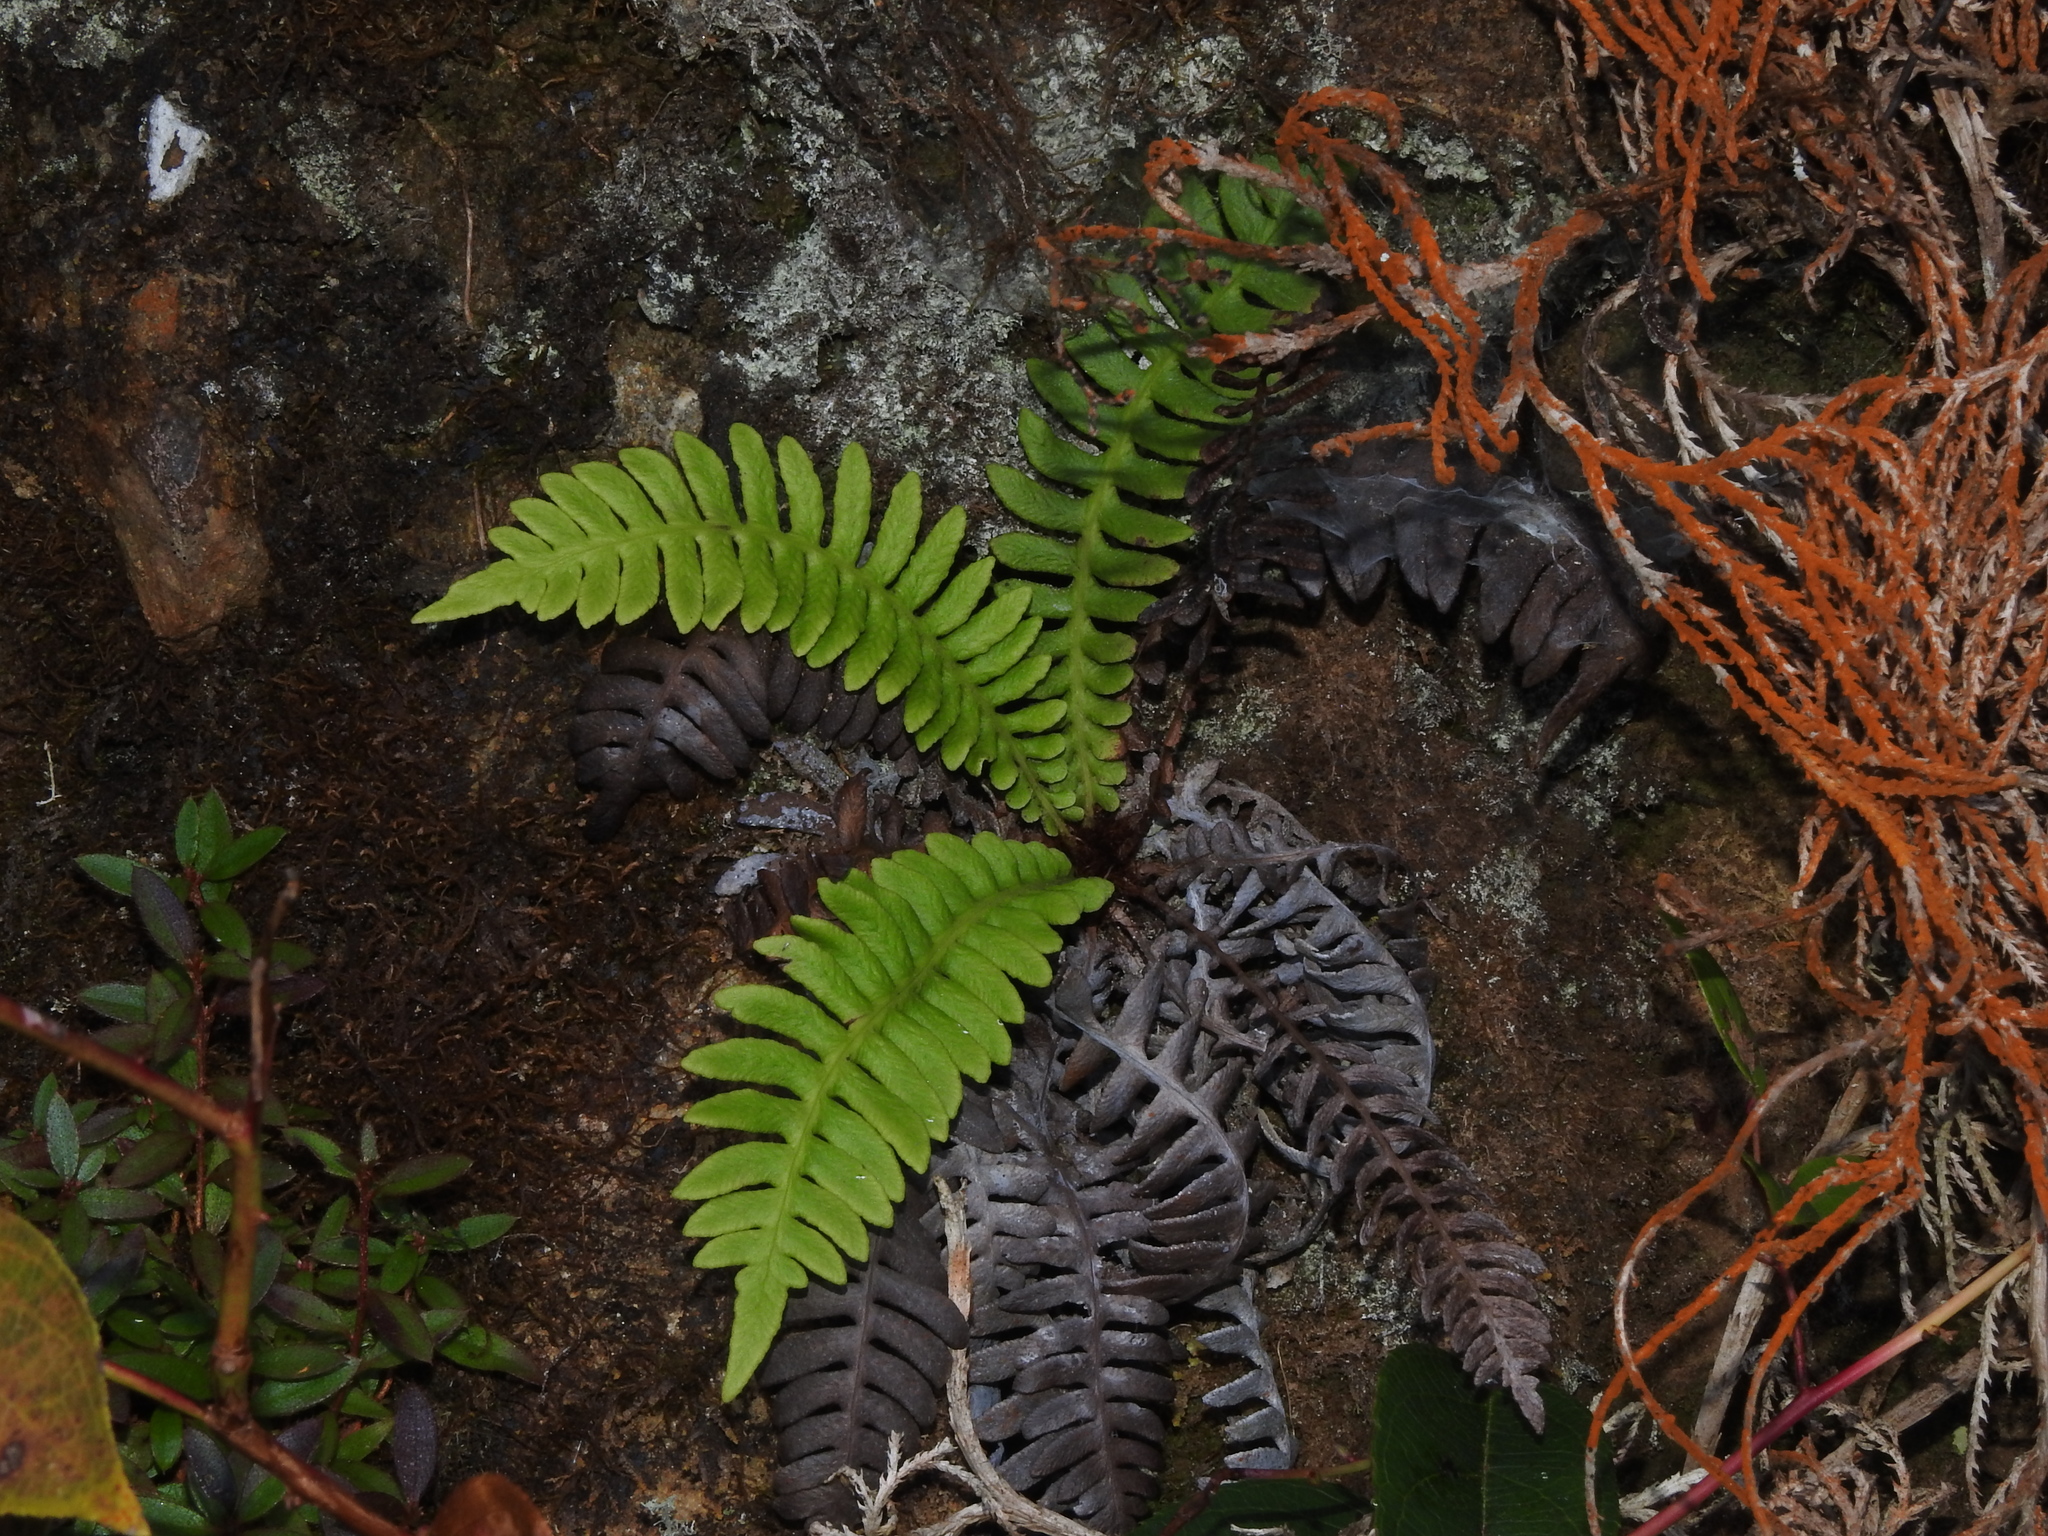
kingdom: Plantae
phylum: Tracheophyta
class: Polypodiopsida
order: Polypodiales
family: Blechnaceae
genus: Spicantopsis
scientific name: Spicantopsis hancockii
